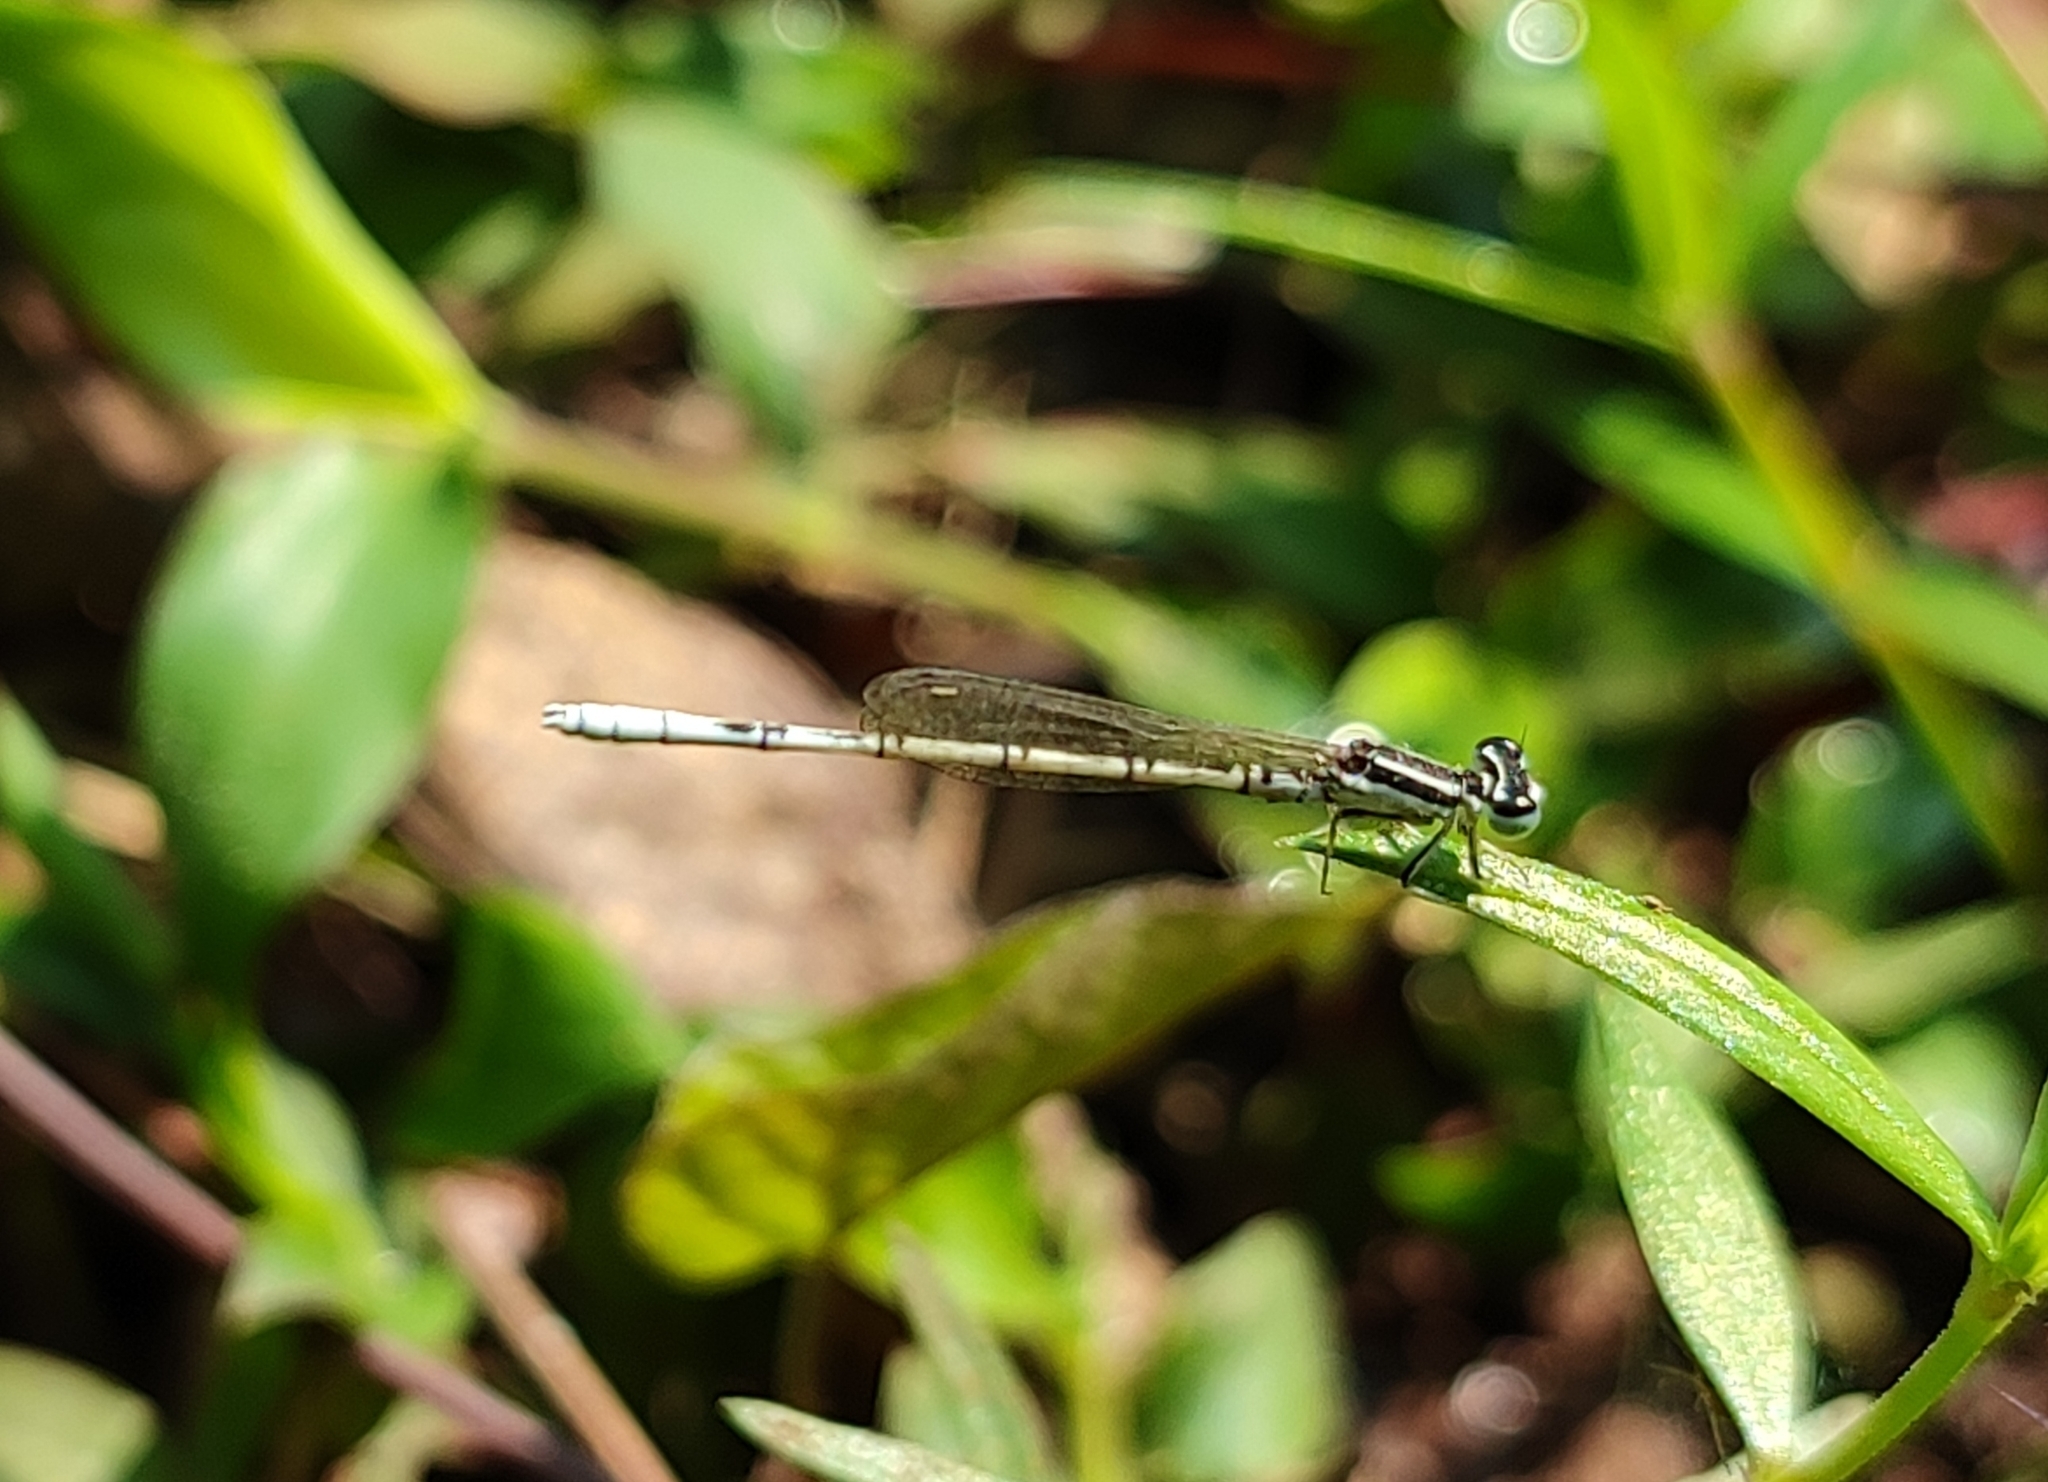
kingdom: Animalia
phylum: Arthropoda
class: Insecta
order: Odonata
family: Coenagrionidae
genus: Agriocnemis
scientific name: Agriocnemis pieris
